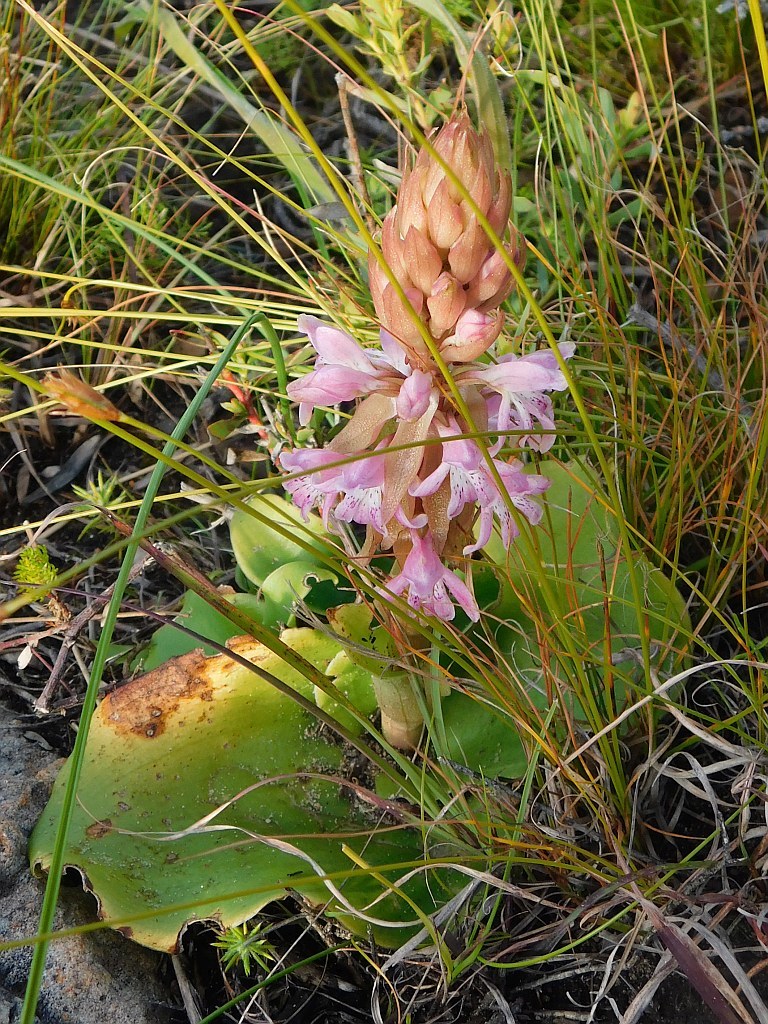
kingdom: Plantae
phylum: Tracheophyta
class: Liliopsida
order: Asparagales
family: Orchidaceae
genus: Satyrium
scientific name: Satyrium erectum
